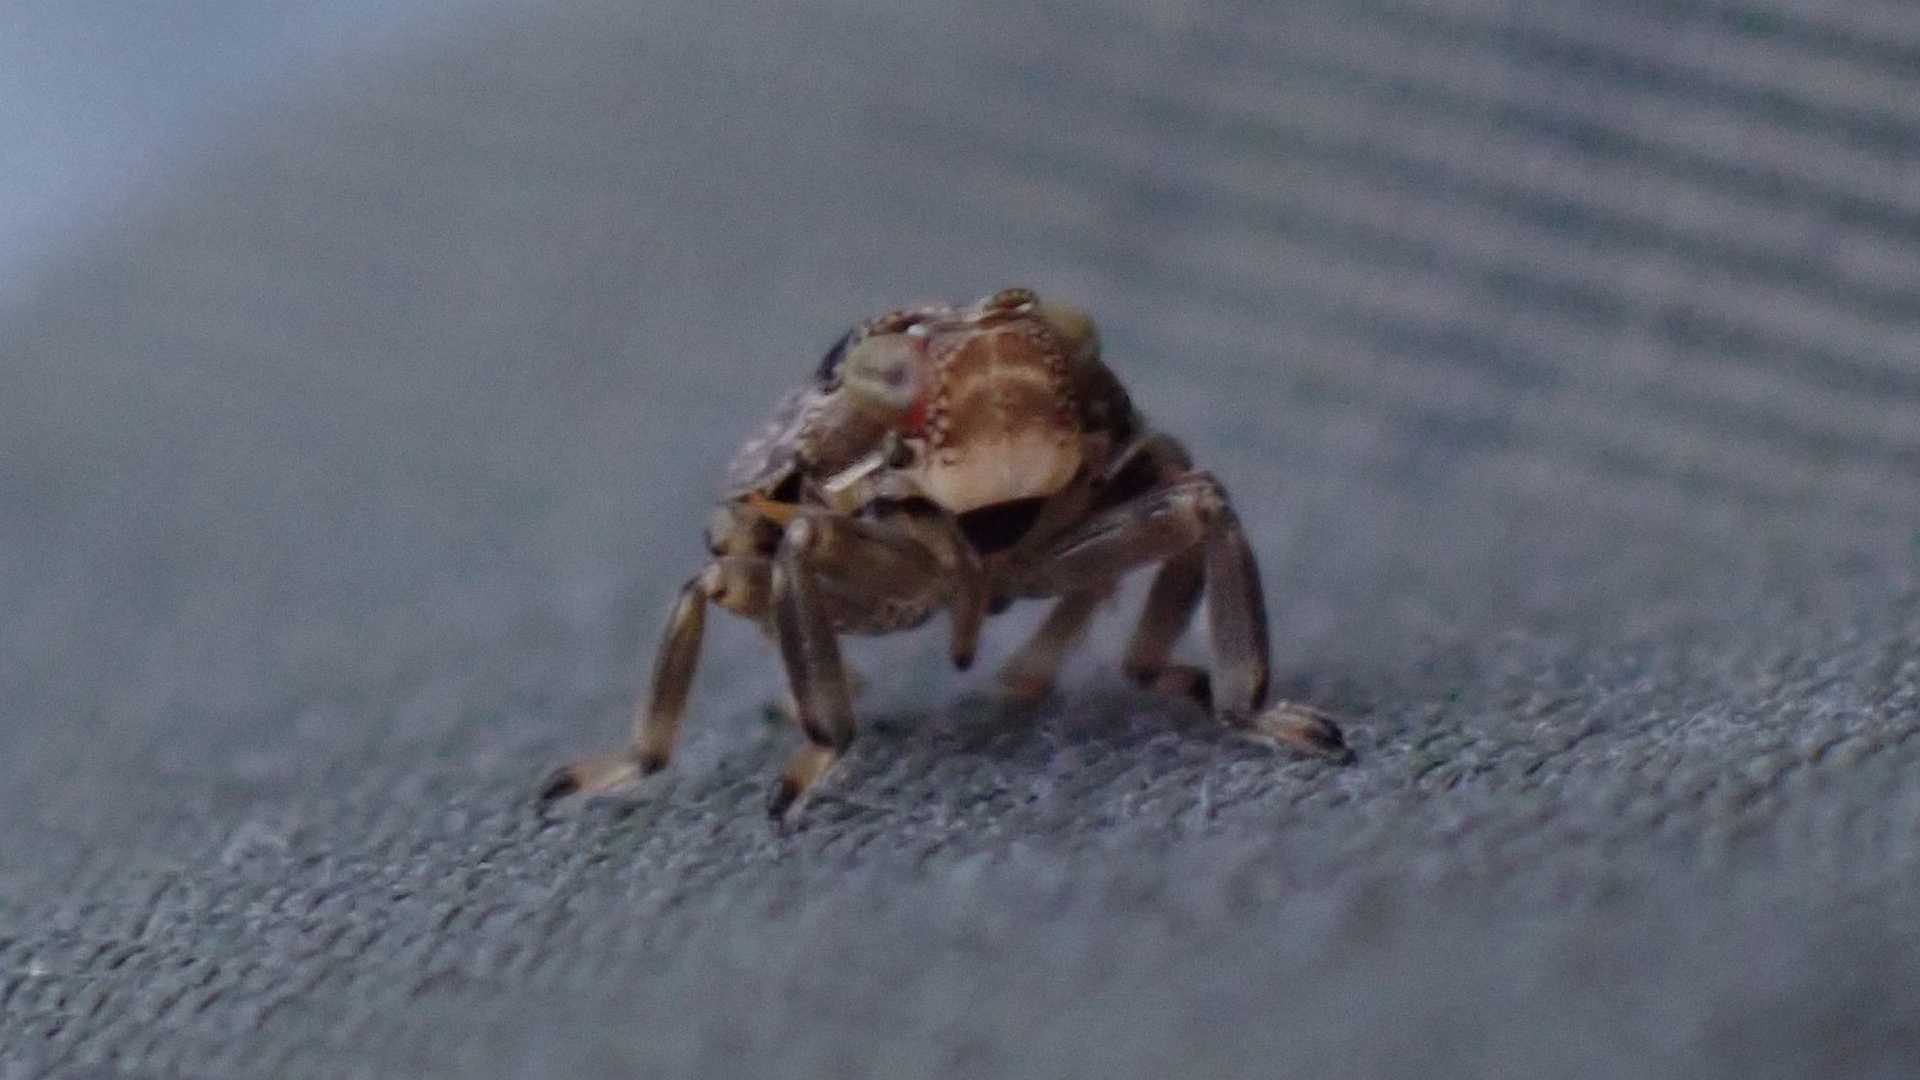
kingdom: Animalia
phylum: Arthropoda
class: Insecta
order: Hemiptera
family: Issidae
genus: Issus
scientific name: Issus coleoptratus
